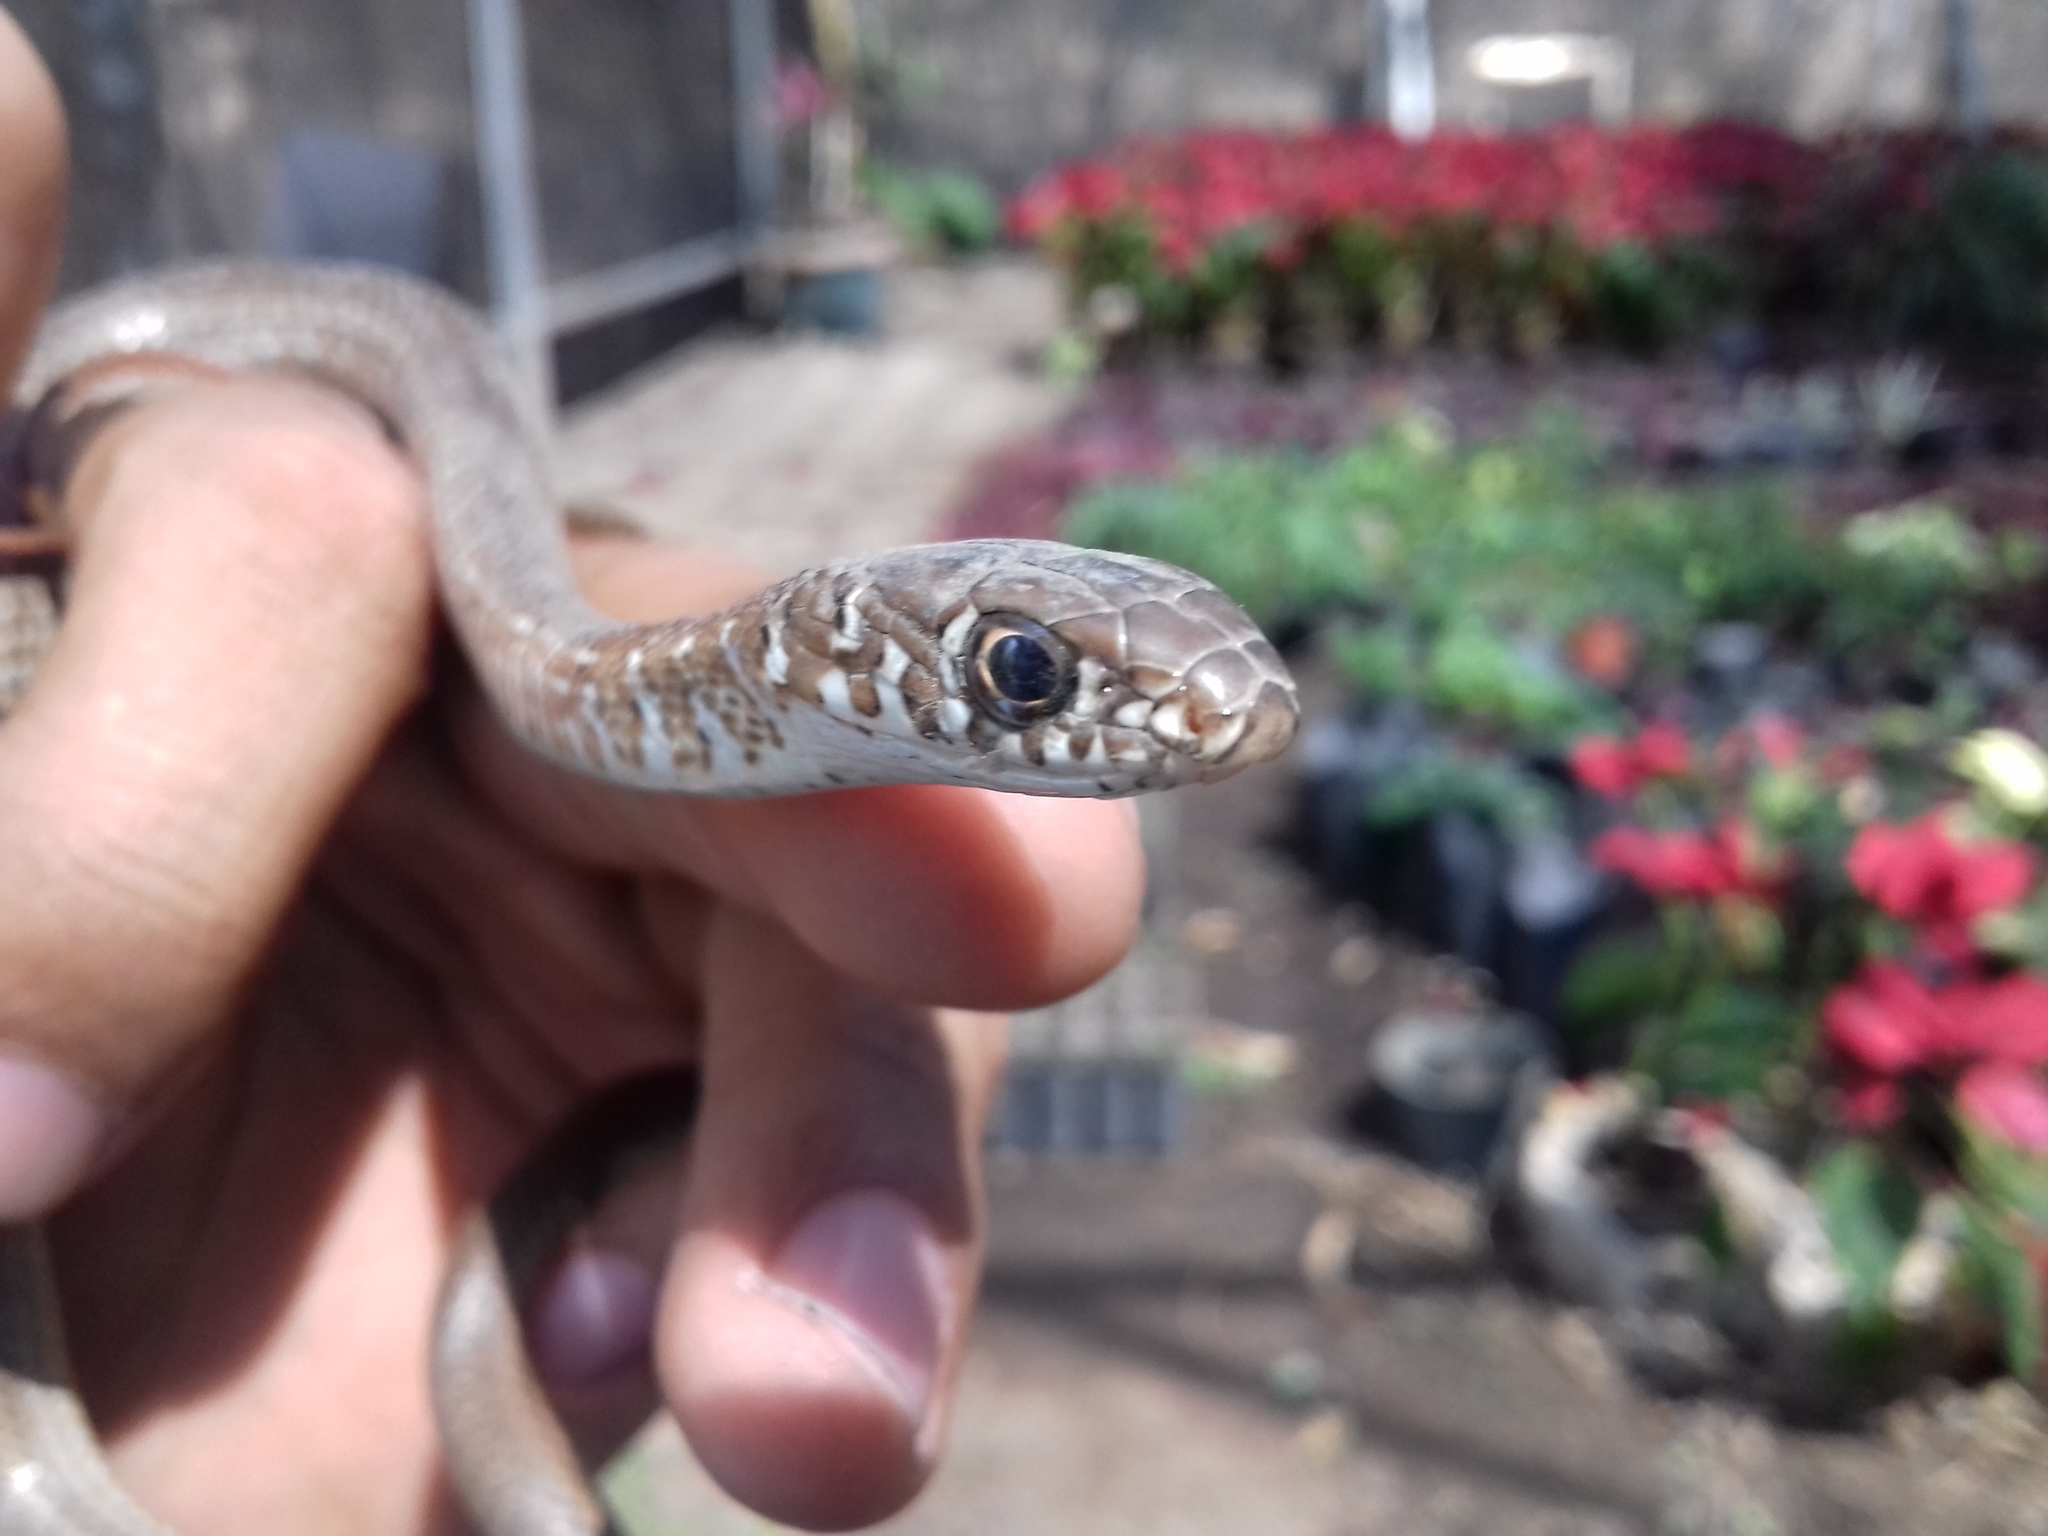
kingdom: Animalia
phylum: Chordata
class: Squamata
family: Colubridae
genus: Masticophis
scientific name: Masticophis mentovarius
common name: Neotropical whip snake
